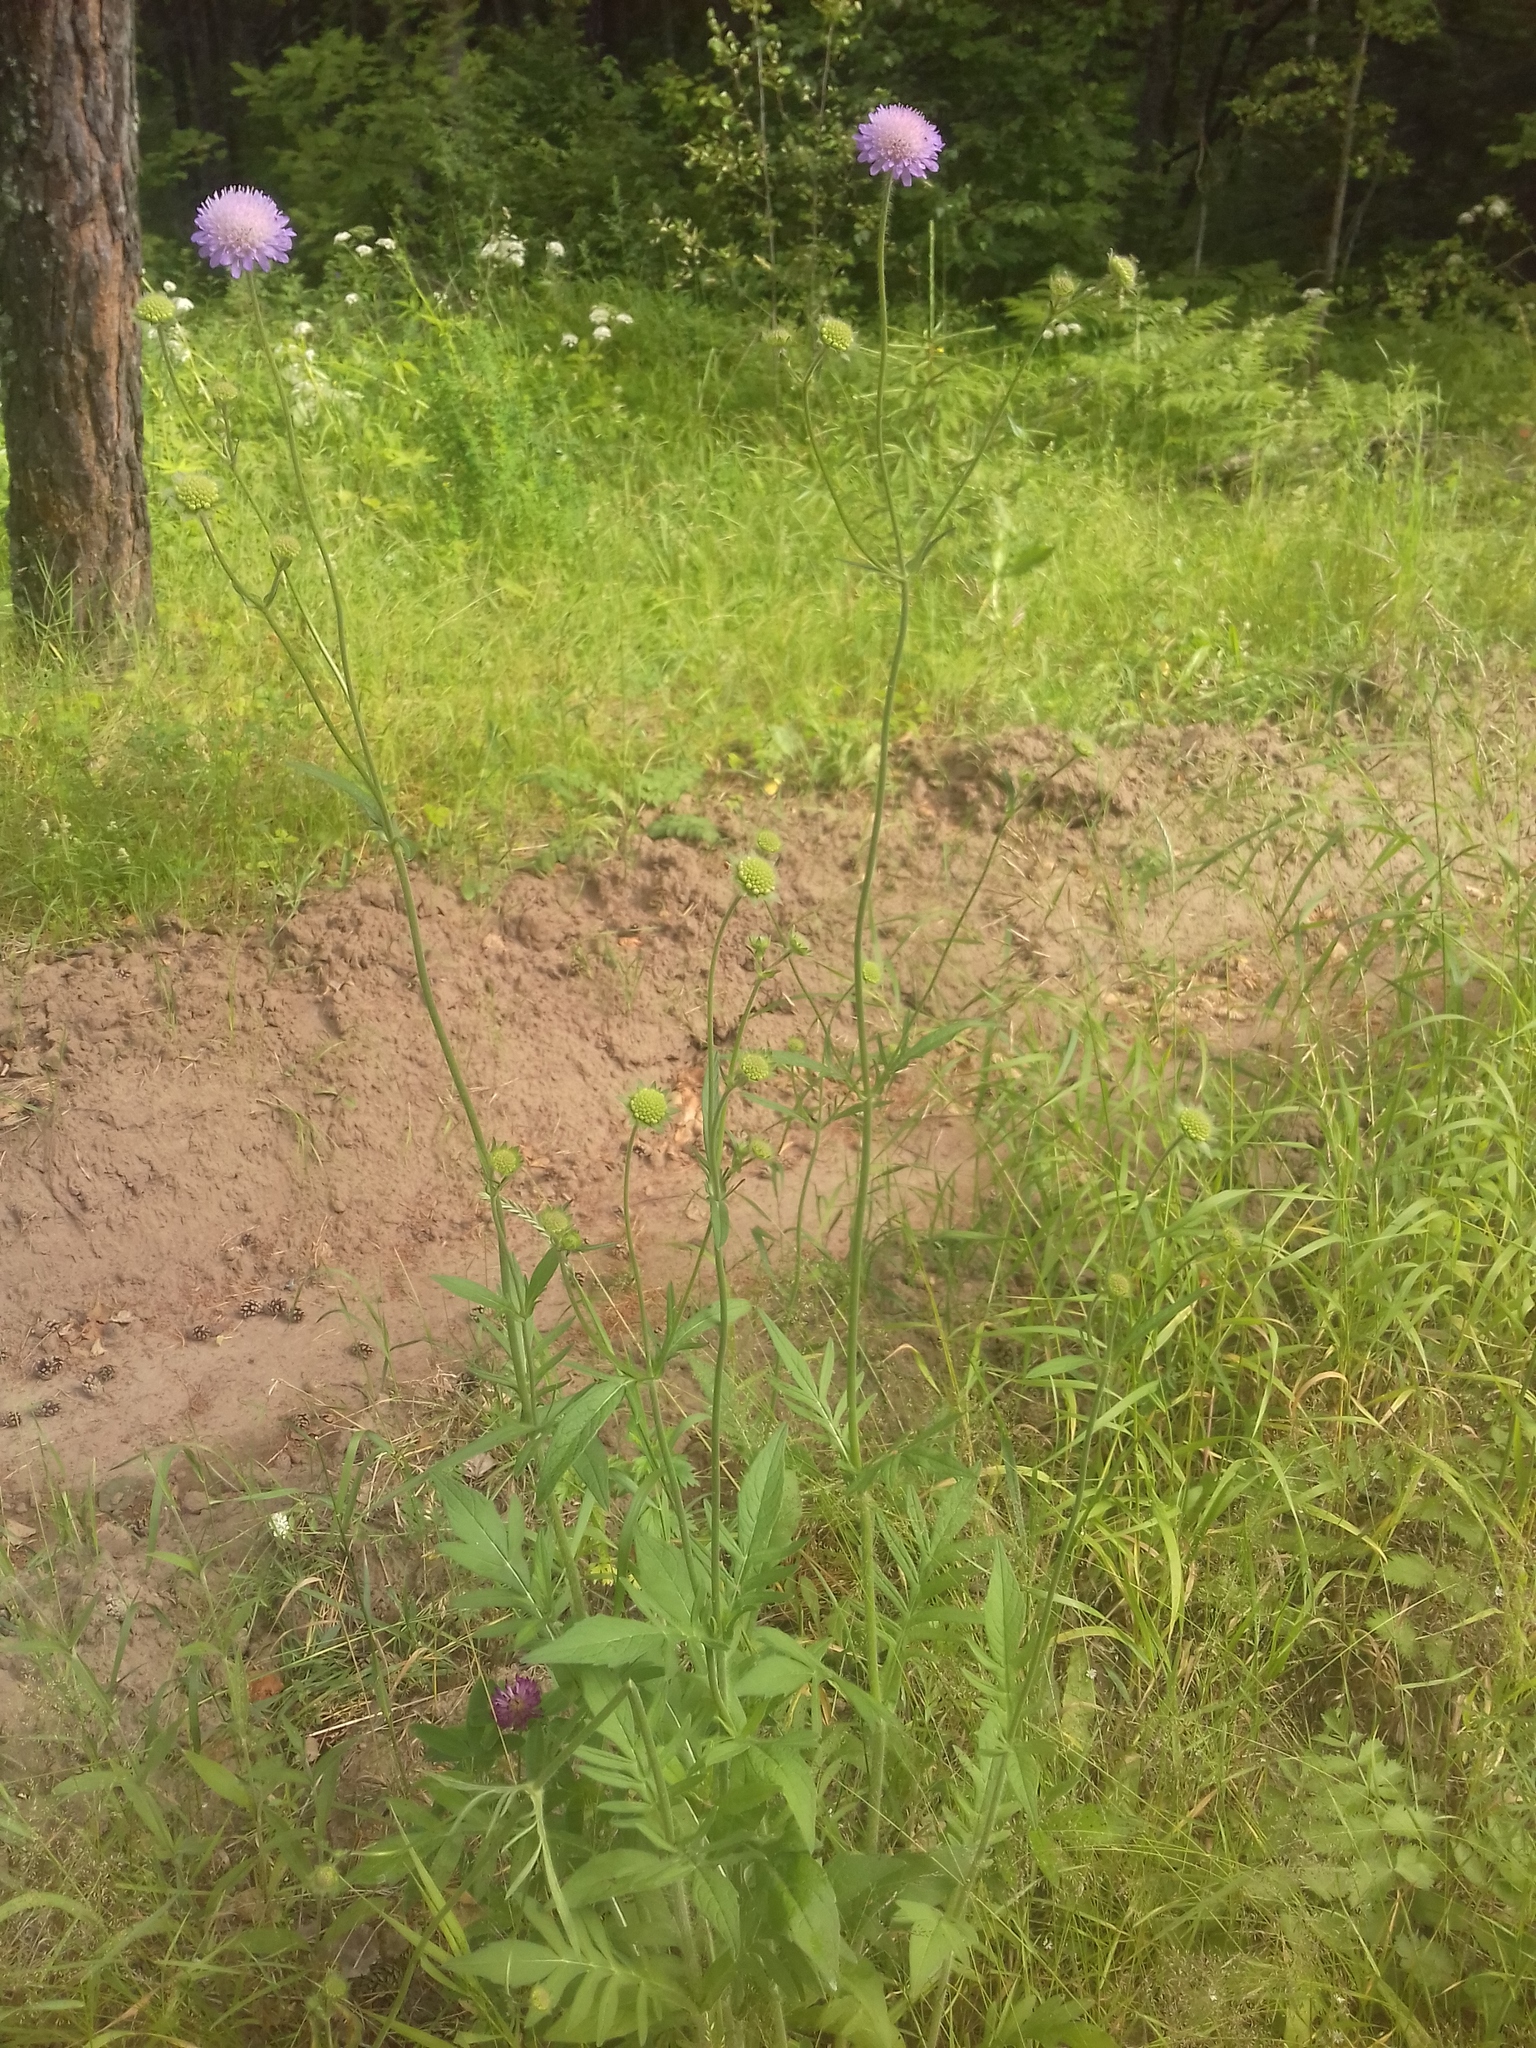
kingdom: Plantae
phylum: Tracheophyta
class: Magnoliopsida
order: Dipsacales
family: Caprifoliaceae
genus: Knautia
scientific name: Knautia arvensis
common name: Field scabiosa
